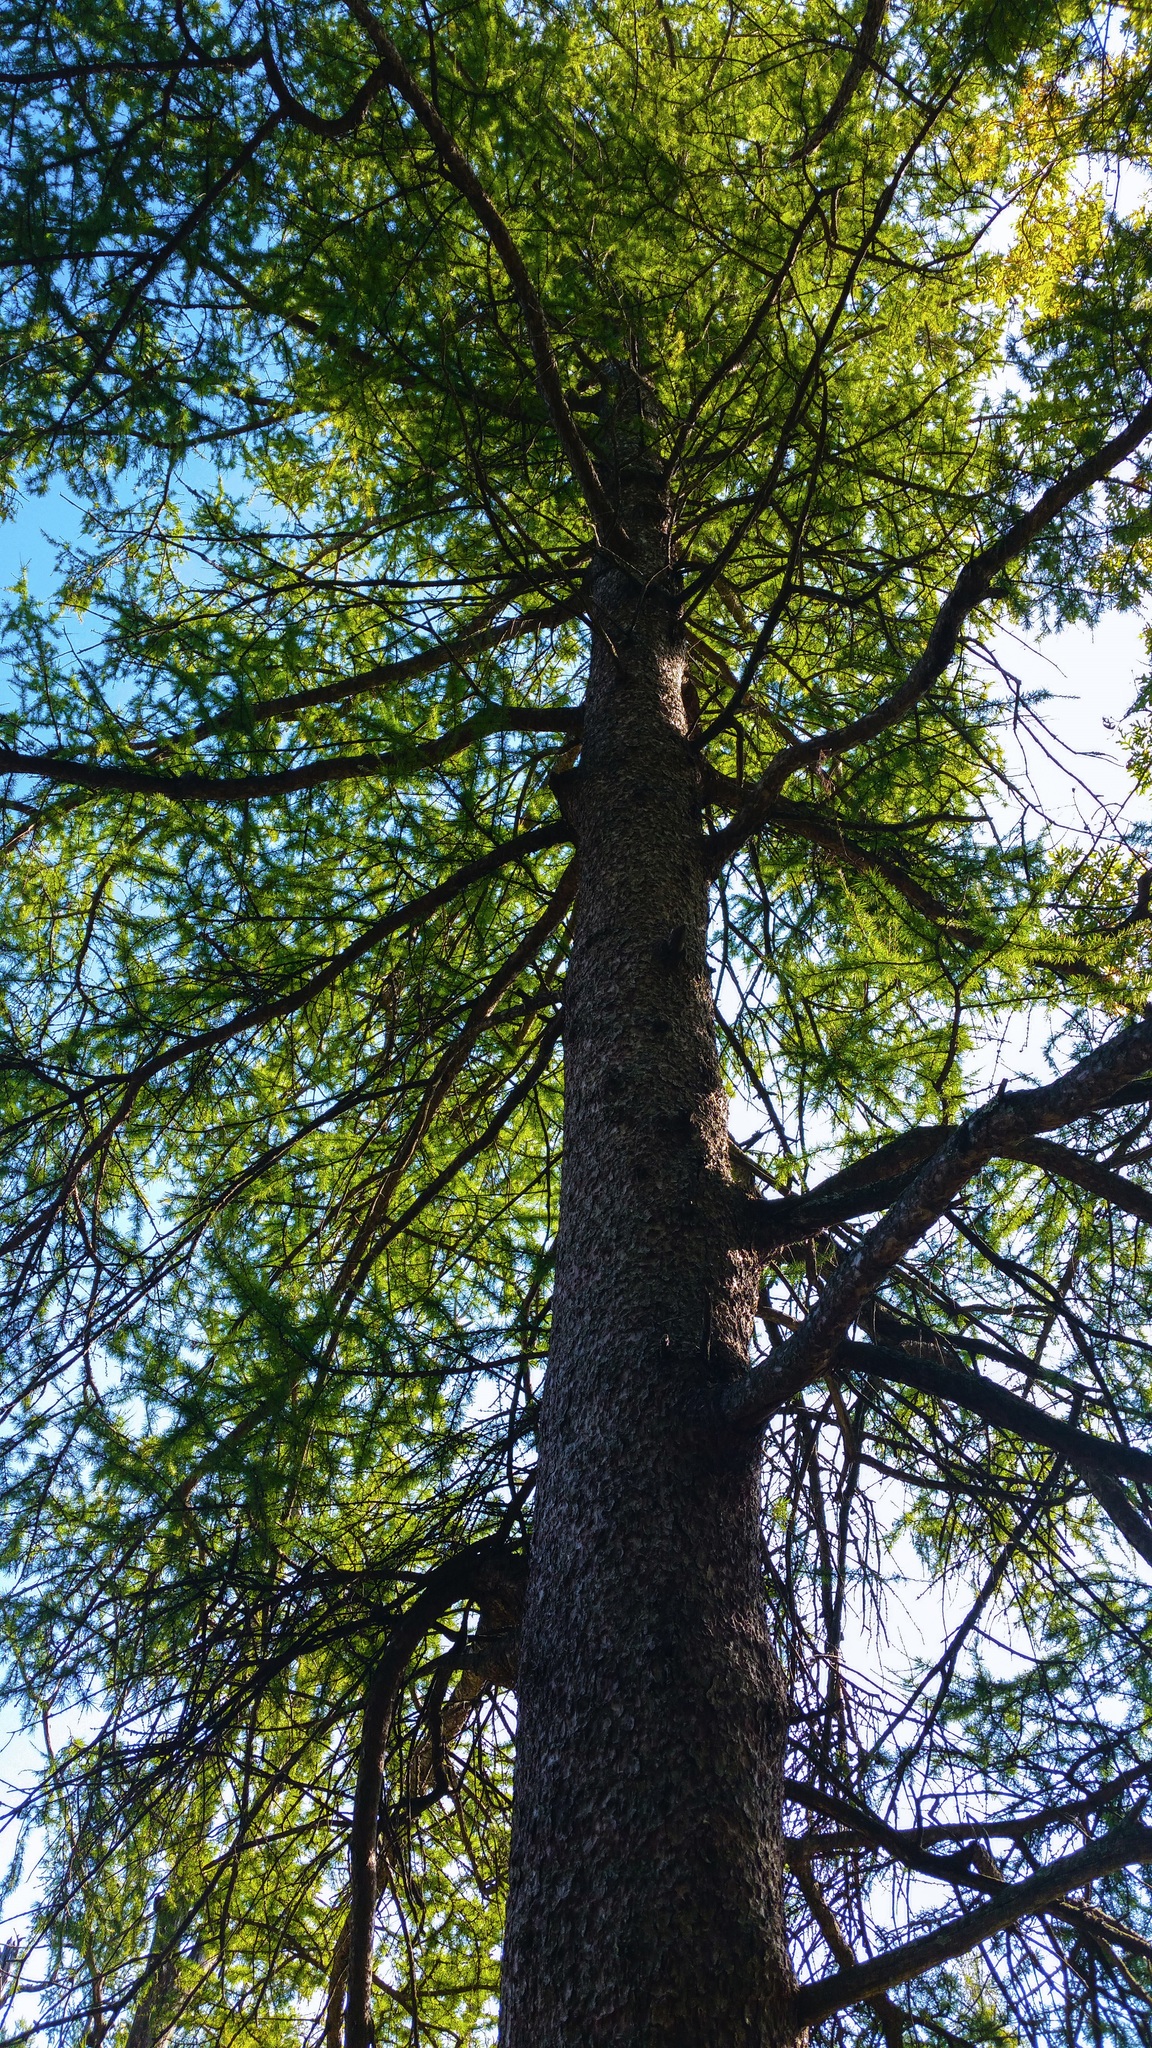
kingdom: Plantae
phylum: Tracheophyta
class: Pinopsida
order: Pinales
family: Pinaceae
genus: Larix
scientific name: Larix laricina
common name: American larch
